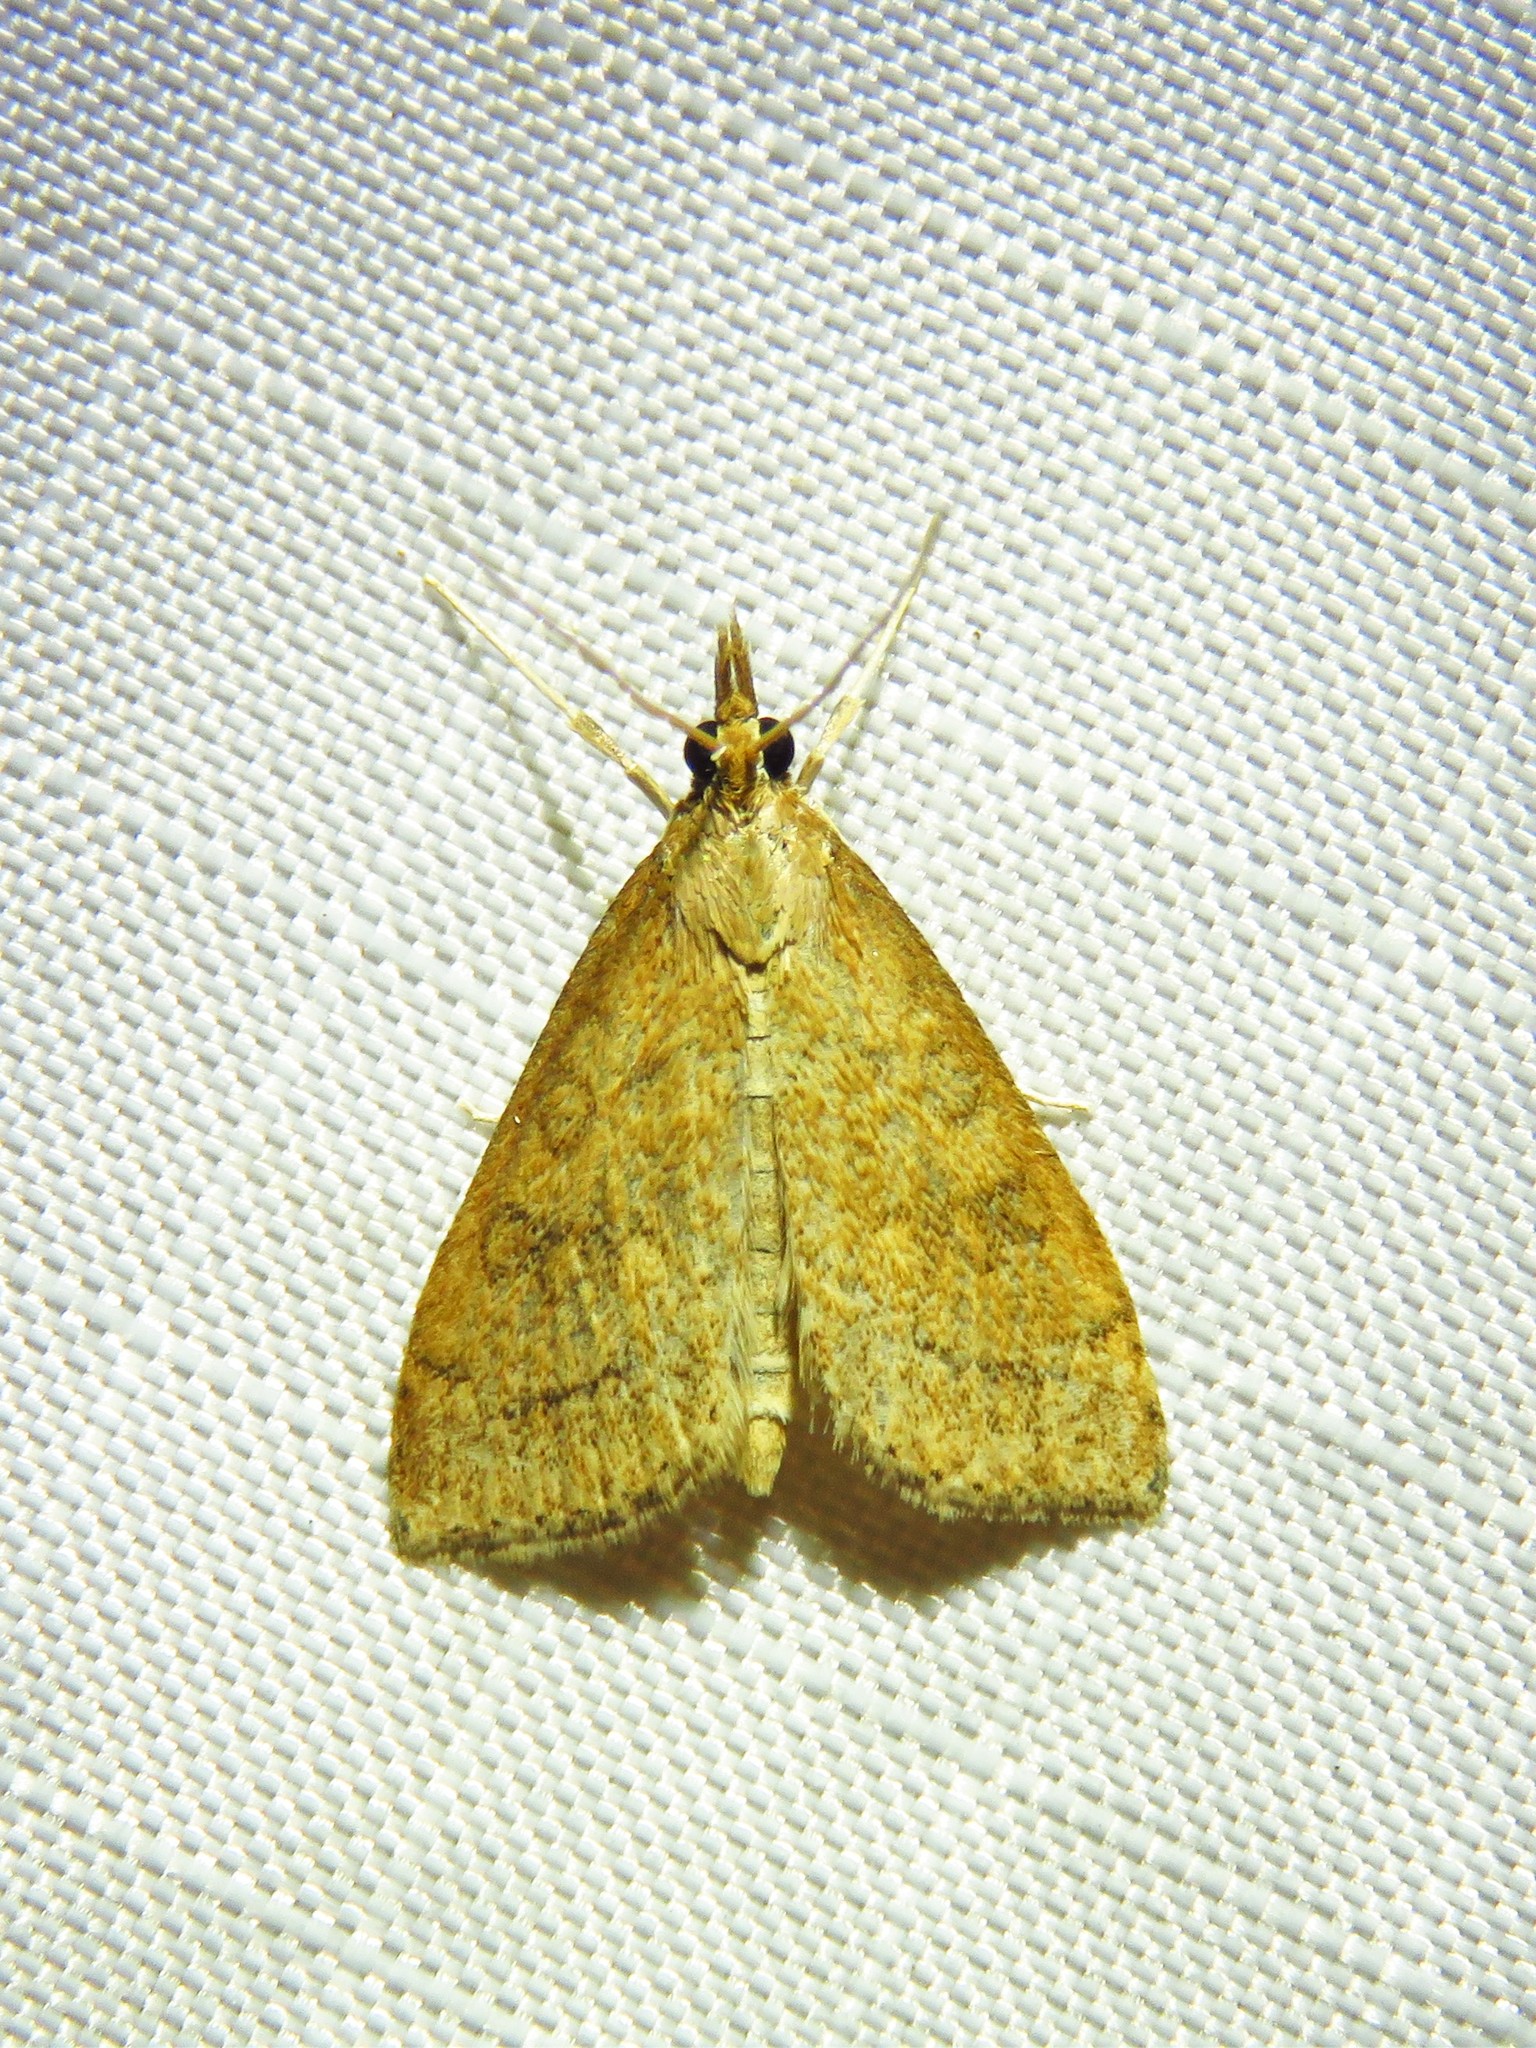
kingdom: Animalia
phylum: Arthropoda
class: Insecta
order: Lepidoptera
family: Crambidae
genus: Udea
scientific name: Udea rubigalis
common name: Celery leaftier moth
